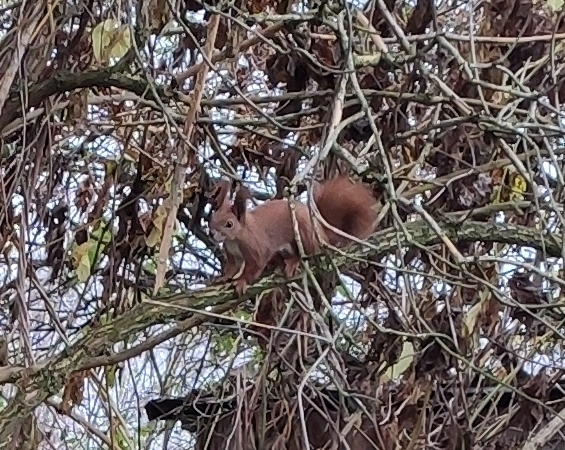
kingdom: Animalia
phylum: Chordata
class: Mammalia
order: Rodentia
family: Sciuridae
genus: Sciurus
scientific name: Sciurus vulgaris
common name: Eurasian red squirrel
